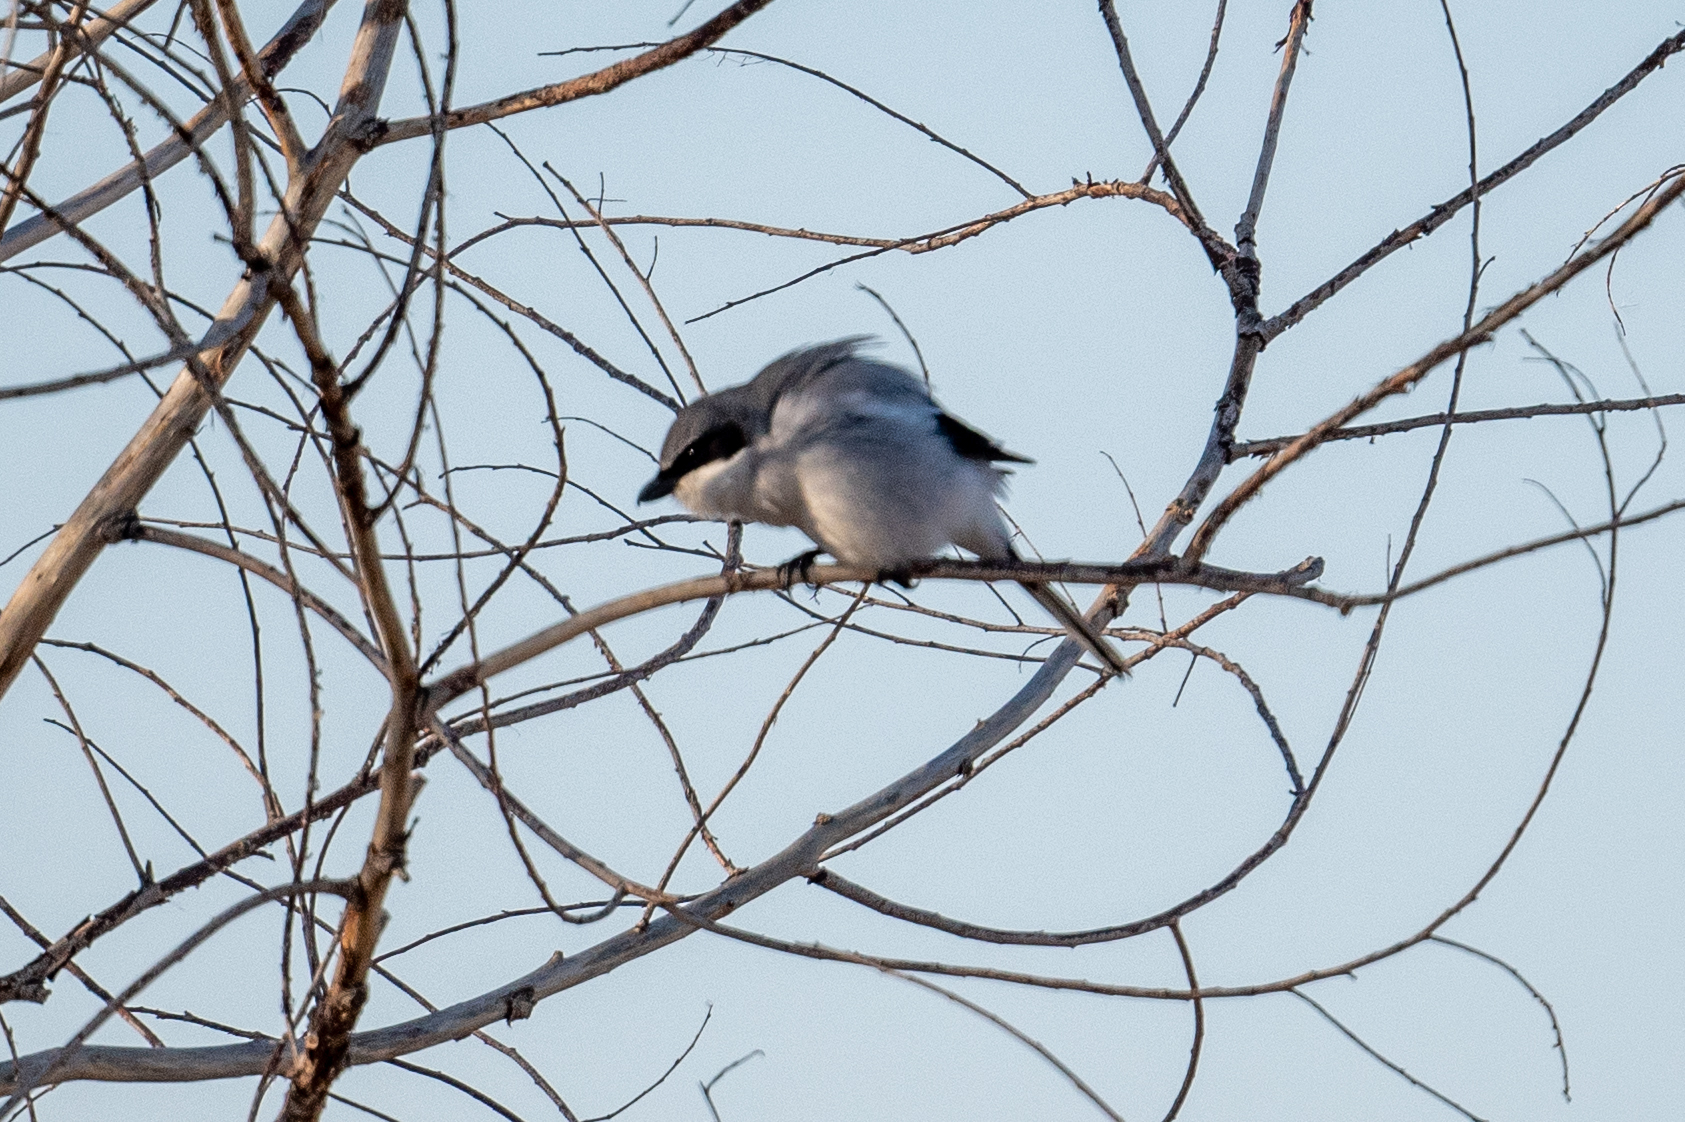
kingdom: Animalia
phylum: Chordata
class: Aves
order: Passeriformes
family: Laniidae
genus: Lanius
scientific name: Lanius ludovicianus
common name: Loggerhead shrike
